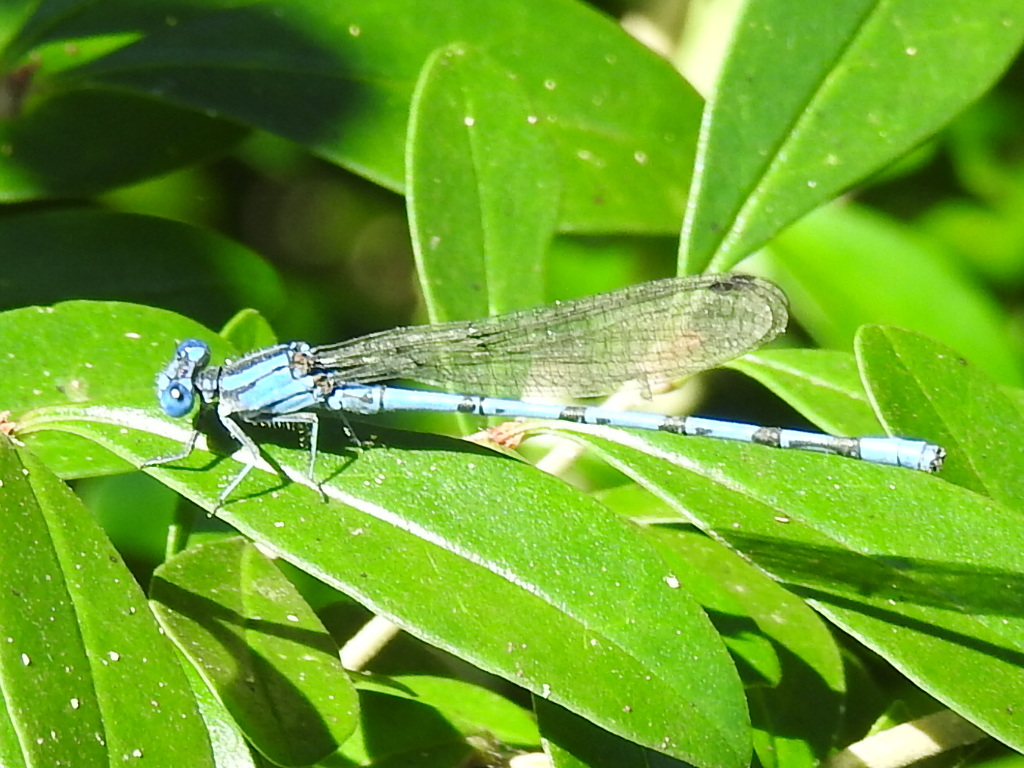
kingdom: Animalia
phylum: Arthropoda
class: Insecta
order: Odonata
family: Coenagrionidae
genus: Argia
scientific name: Argia funebris
